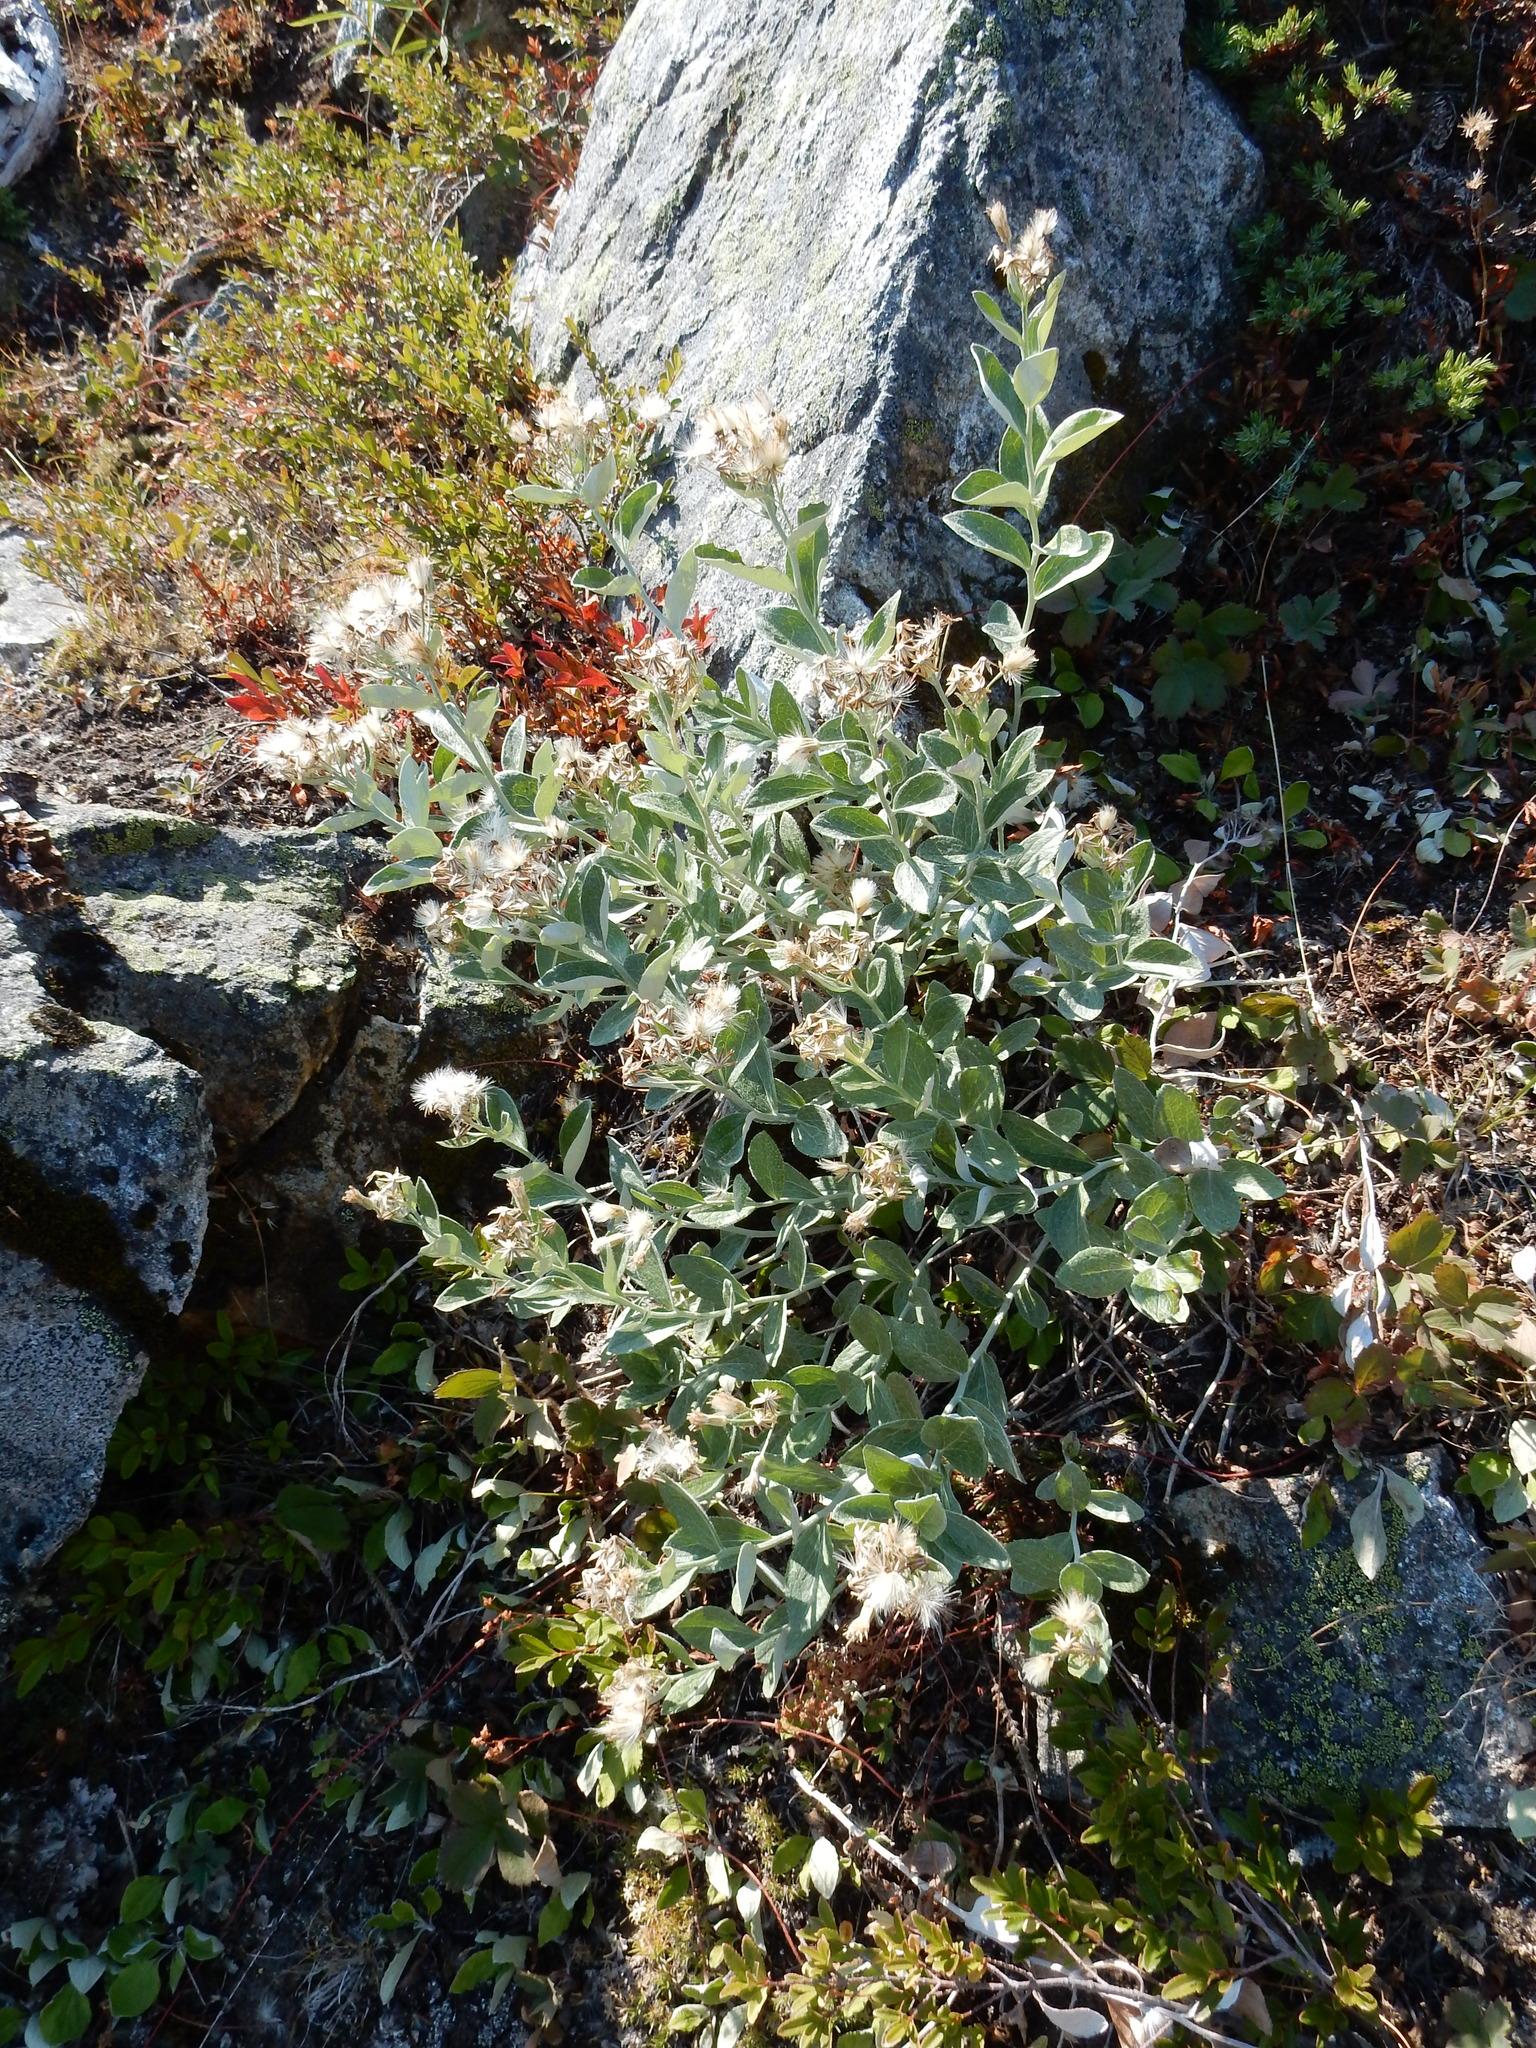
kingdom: Plantae
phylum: Tracheophyta
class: Magnoliopsida
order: Asterales
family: Asteraceae
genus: Luina
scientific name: Luina hypoleuca
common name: Little-leaved luina
